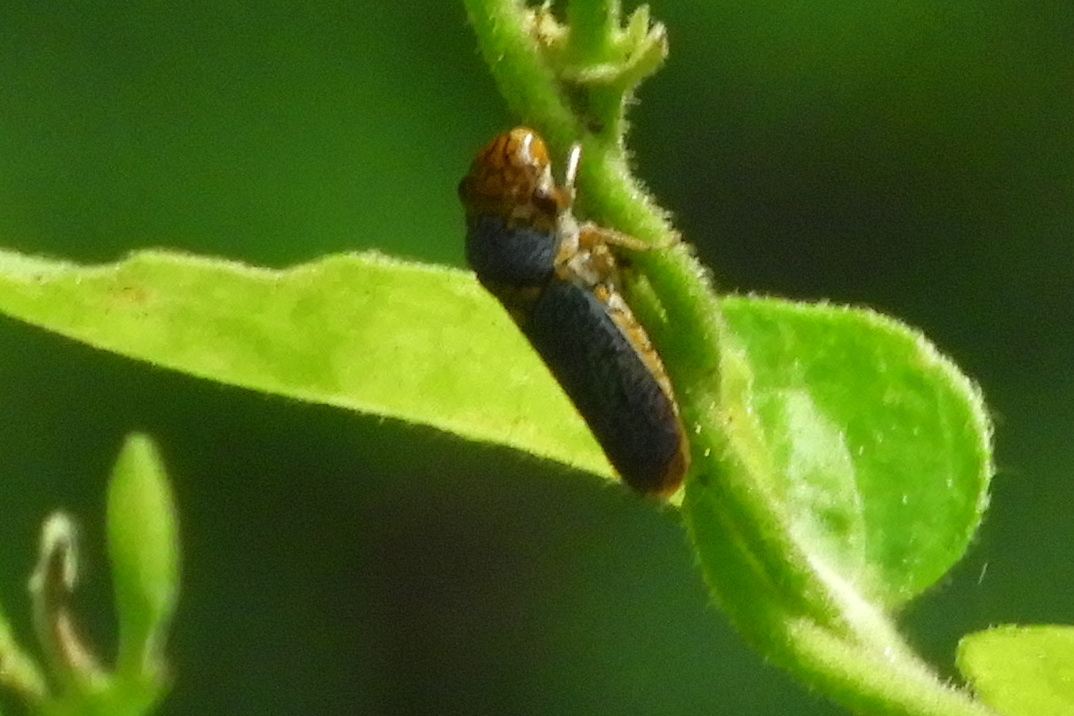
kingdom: Animalia
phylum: Arthropoda
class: Insecta
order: Hemiptera
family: Cicadellidae
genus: Oncometopia
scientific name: Oncometopia orbona
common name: Broad-headed sharpshooter
